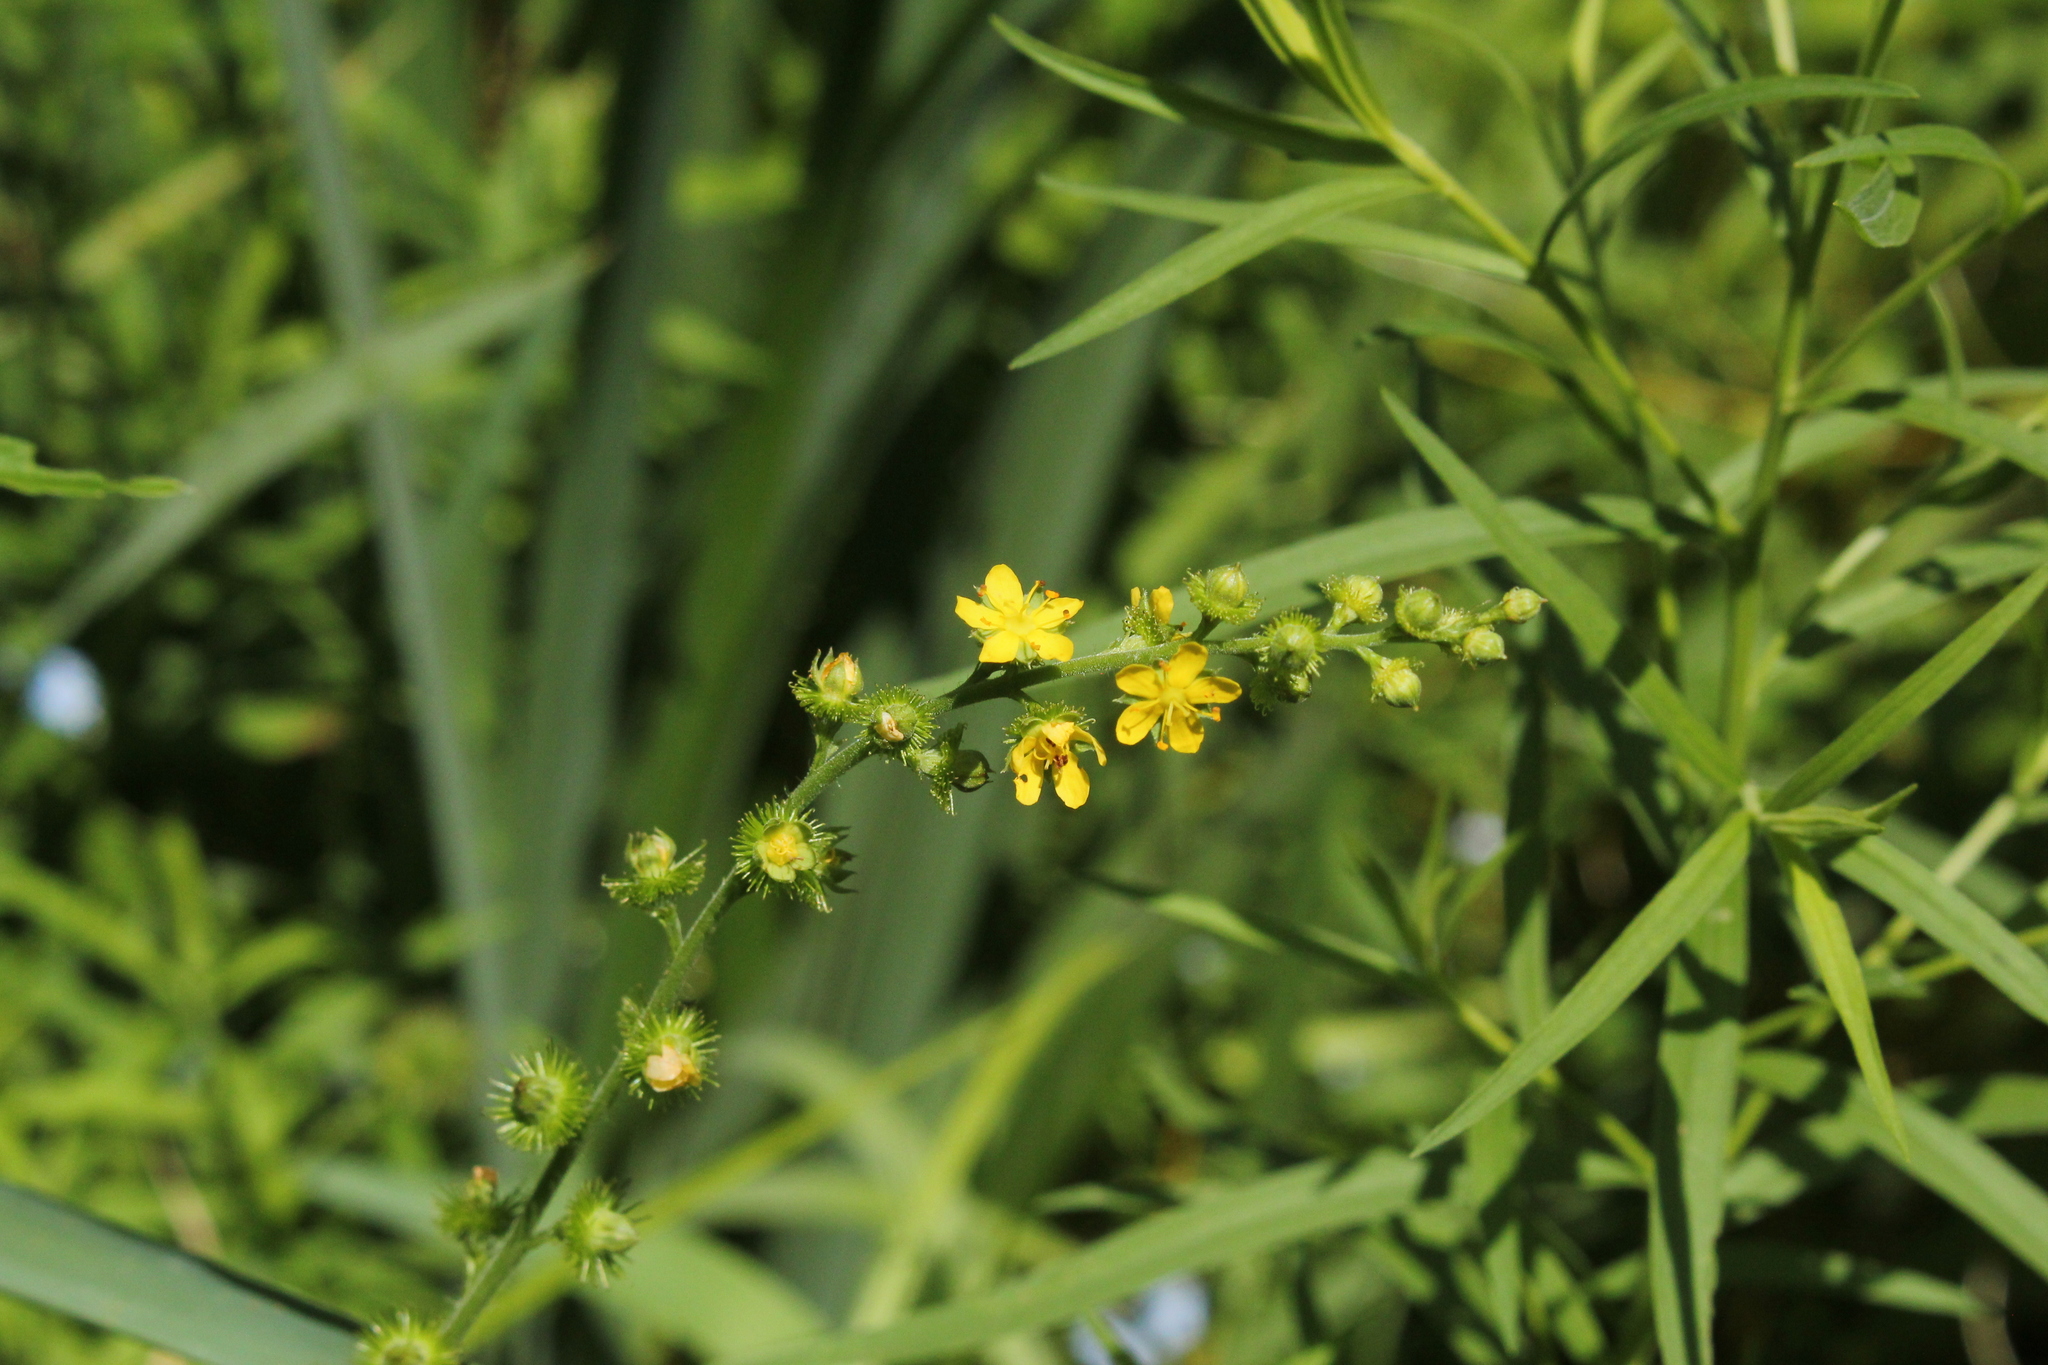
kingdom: Plantae
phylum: Tracheophyta
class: Magnoliopsida
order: Rosales
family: Rosaceae
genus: Agrimonia
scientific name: Agrimonia gryposepala
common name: Common agrimony
